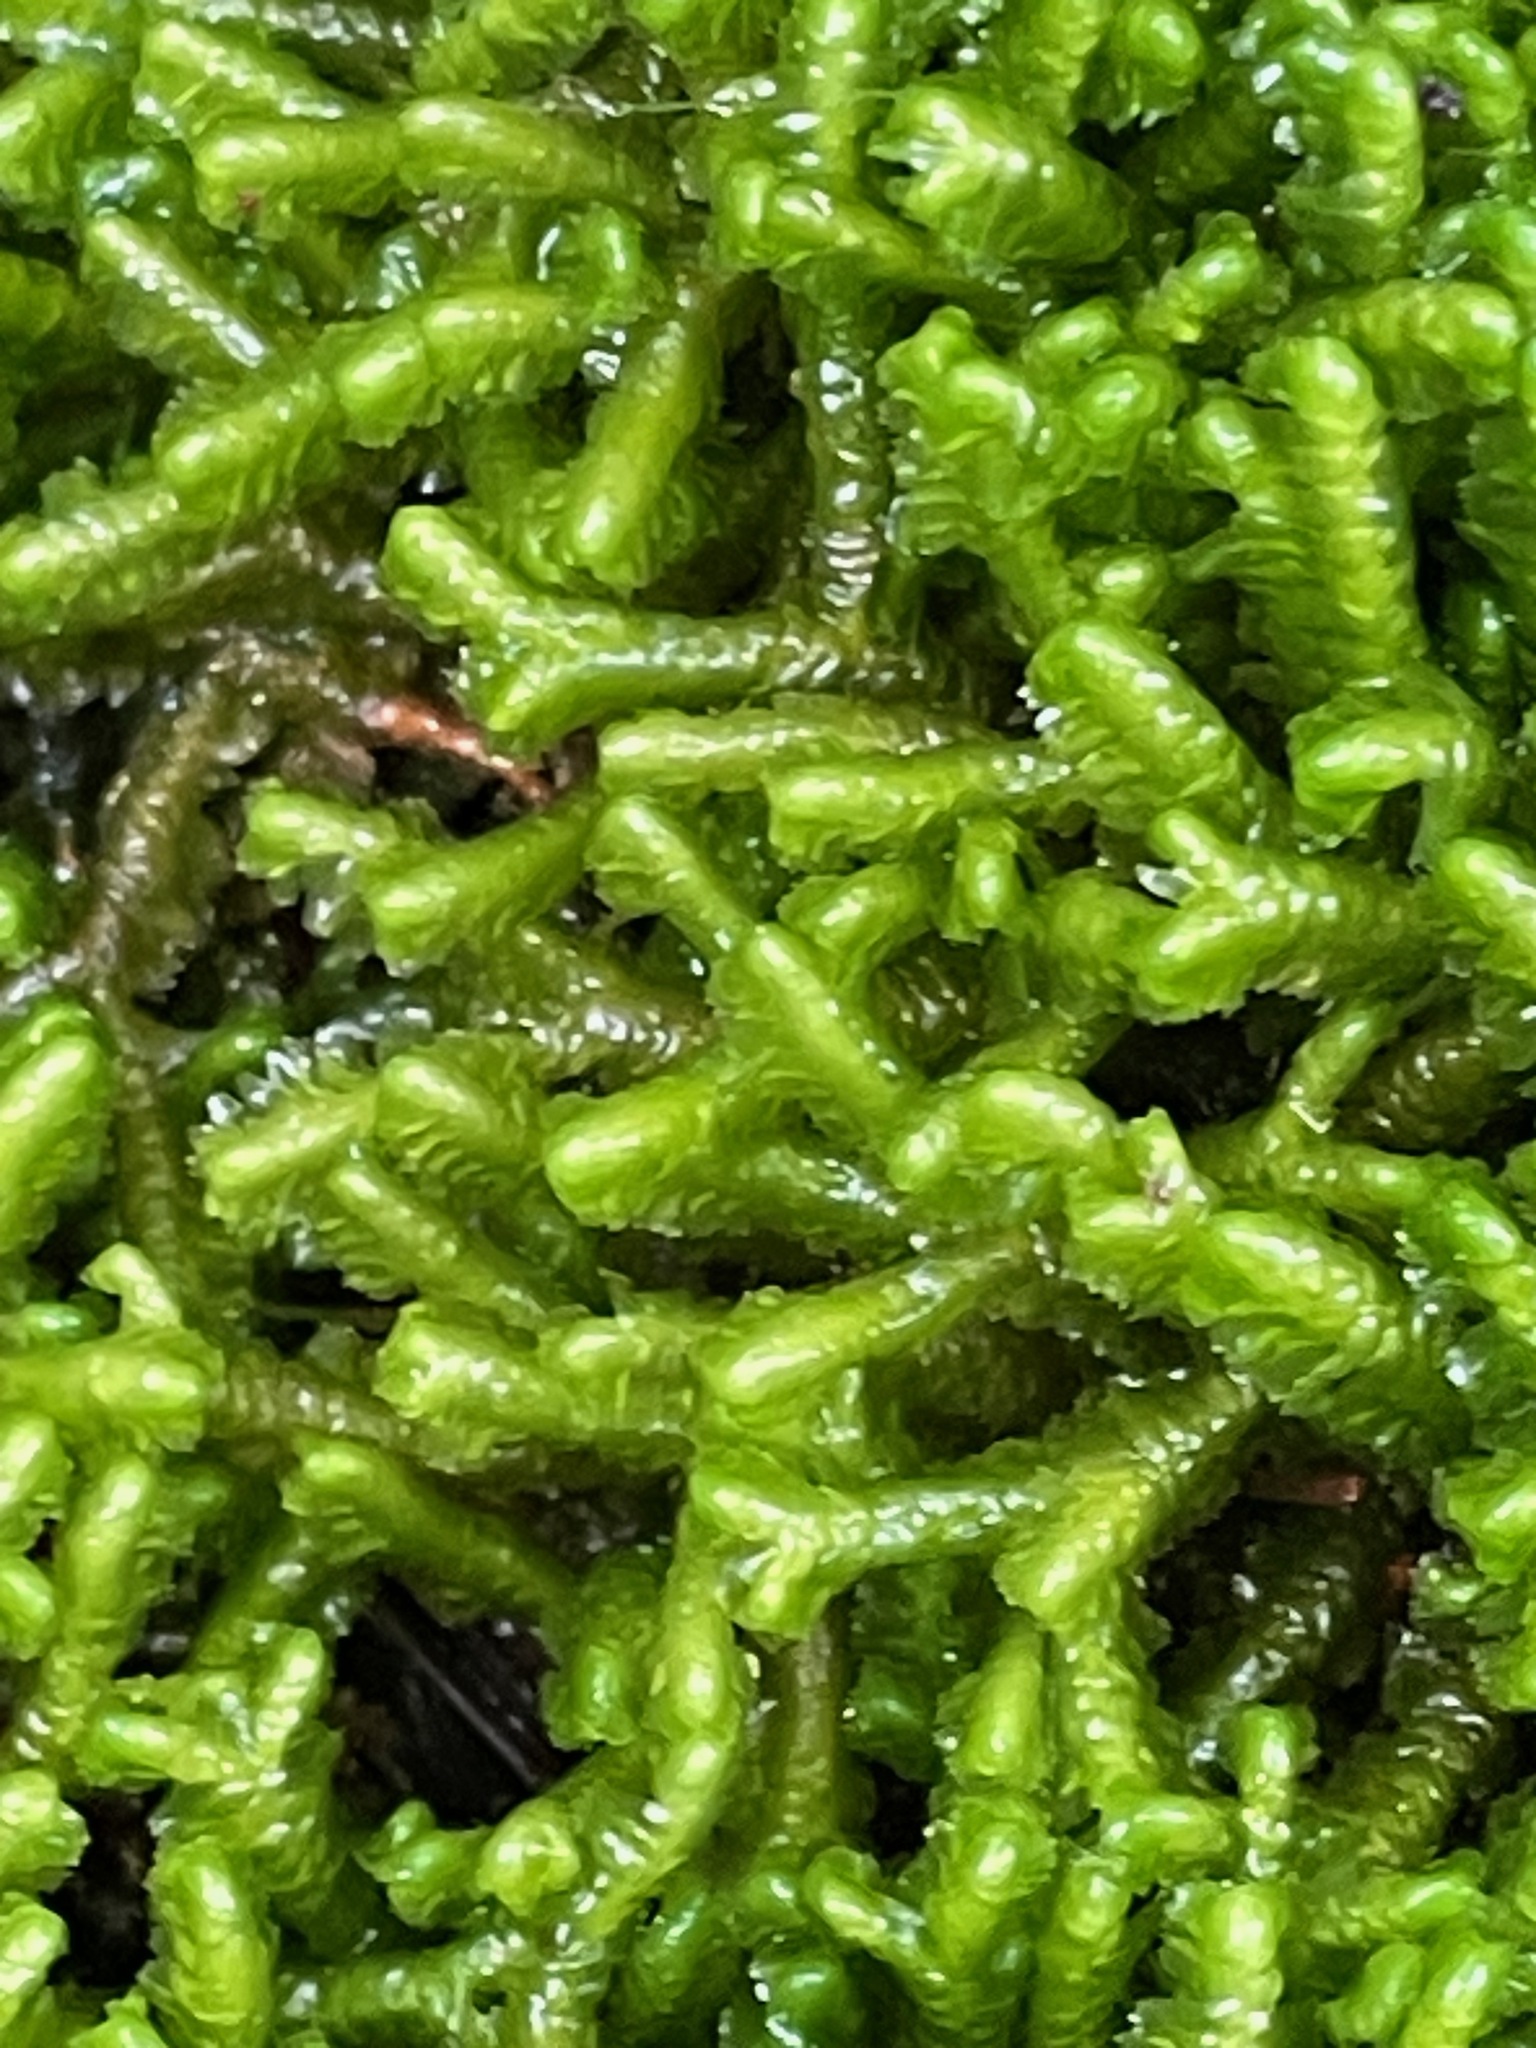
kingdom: Plantae
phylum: Marchantiophyta
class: Jungermanniopsida
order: Jungermanniales
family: Lepidoziaceae
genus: Bazzania
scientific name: Bazzania trilobata
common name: Three-lobed whipwort
